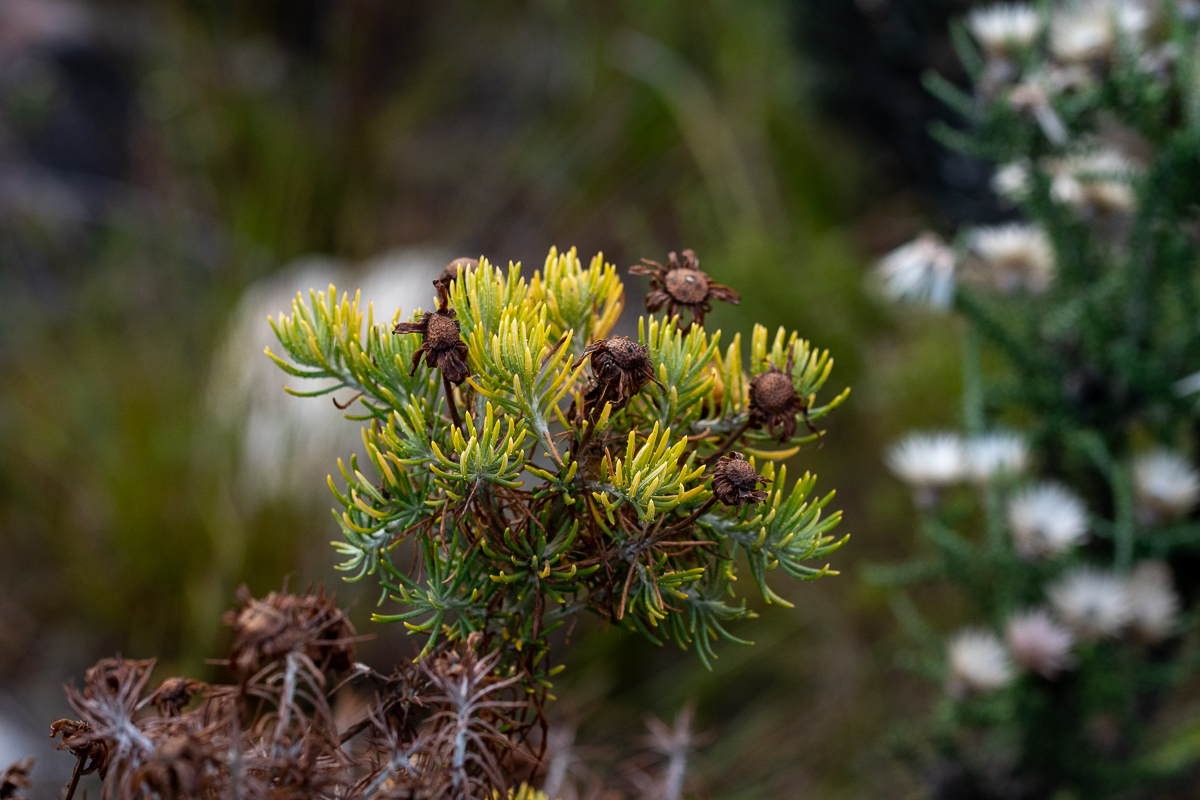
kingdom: Plantae
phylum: Tracheophyta
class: Magnoliopsida
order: Asterales
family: Asteraceae
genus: Heterolepis
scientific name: Heterolepis aliena
